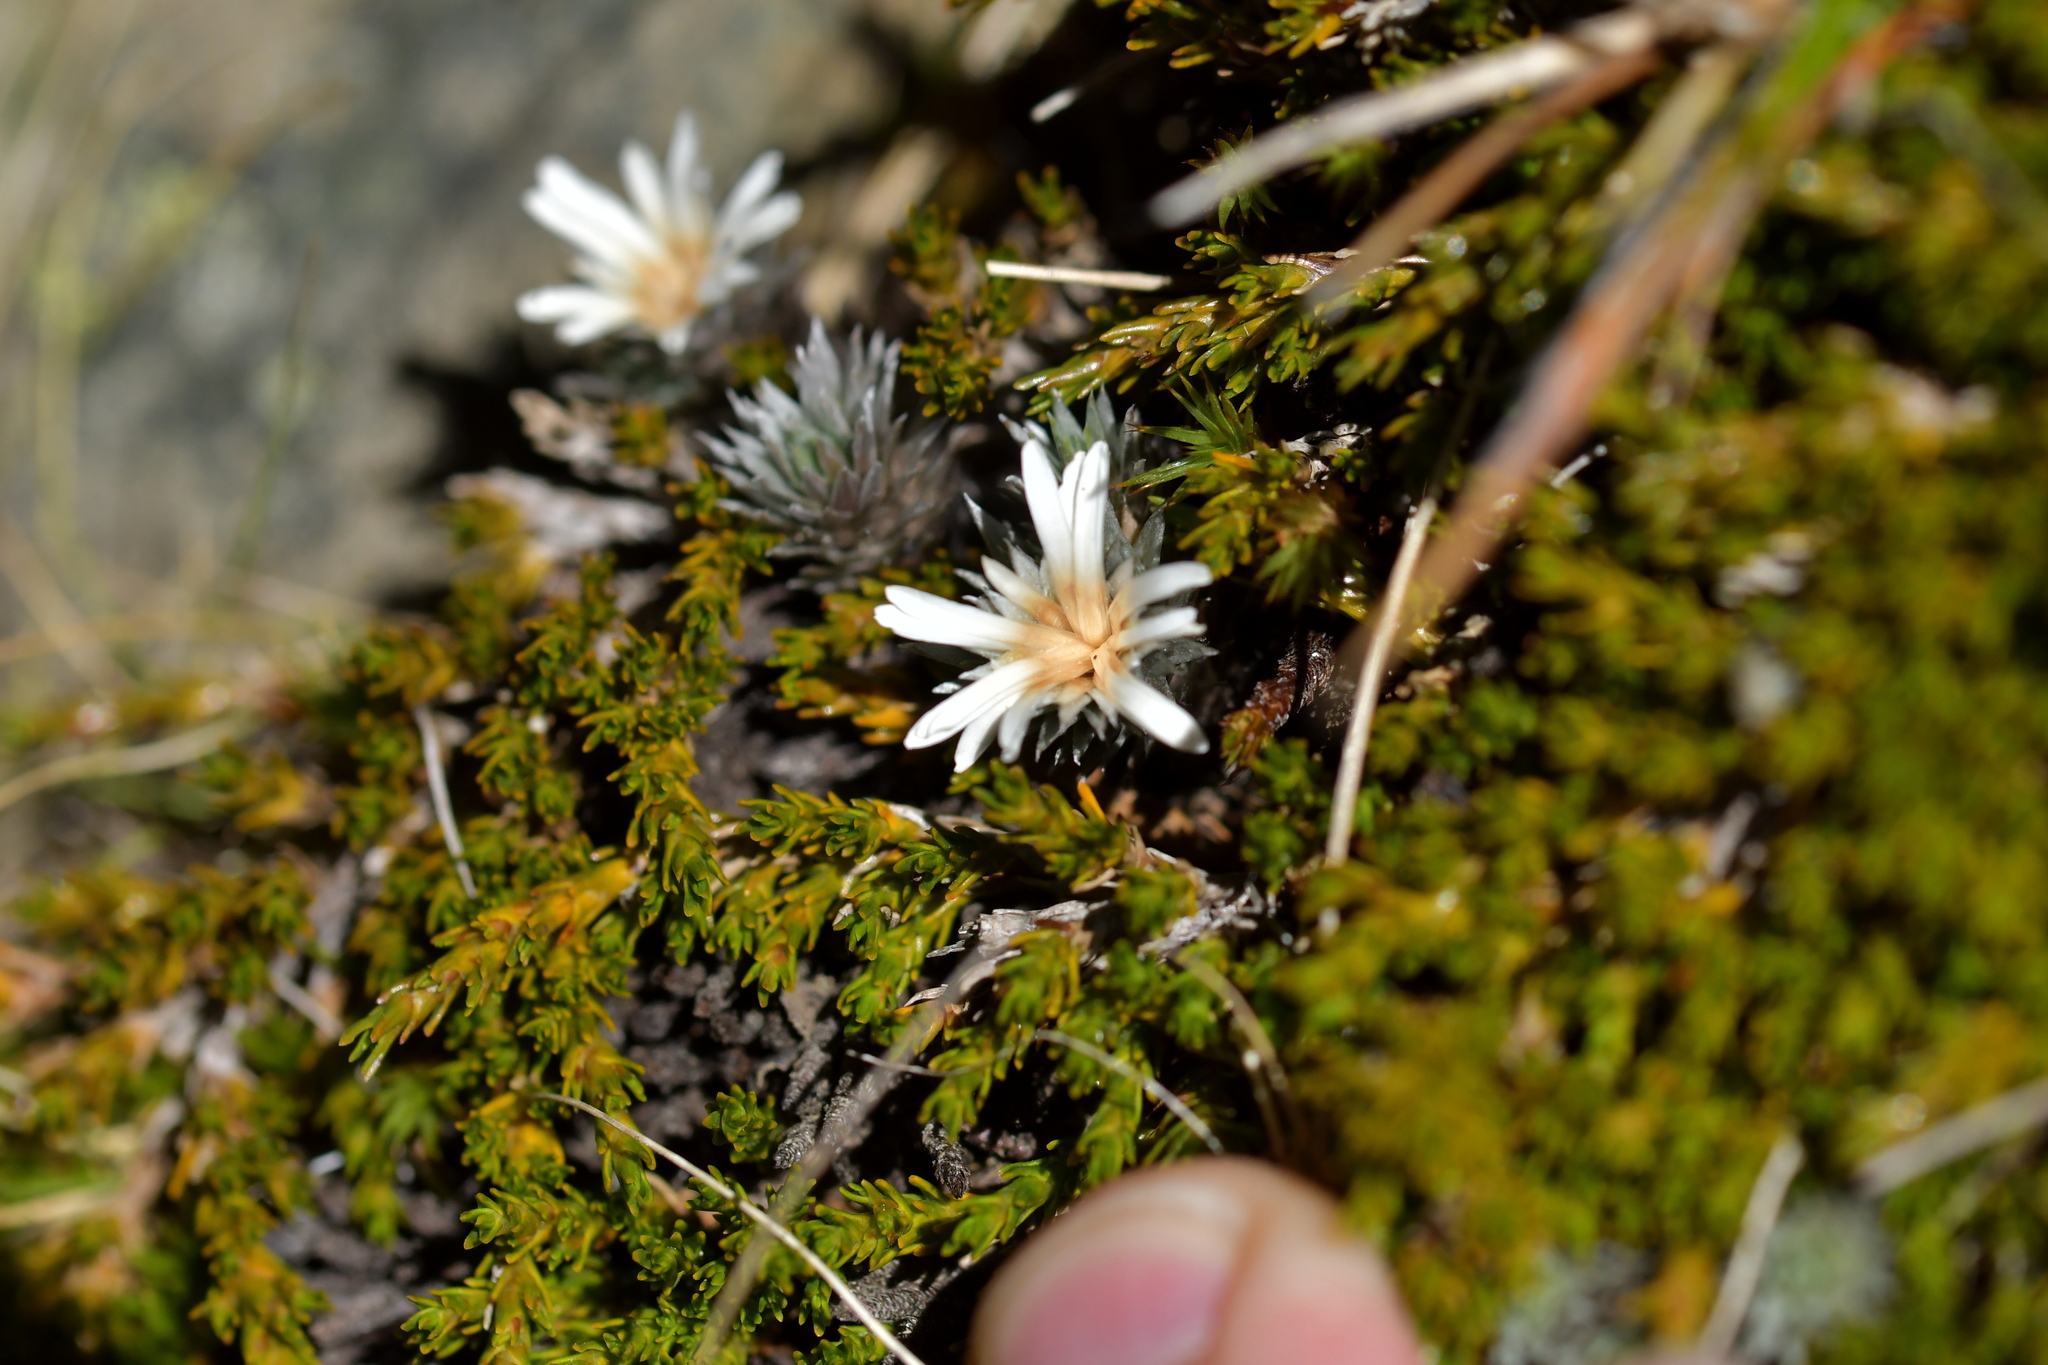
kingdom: Plantae
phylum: Tracheophyta
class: Magnoliopsida
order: Asterales
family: Asteraceae
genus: Raoulia
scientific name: Raoulia grandiflora
